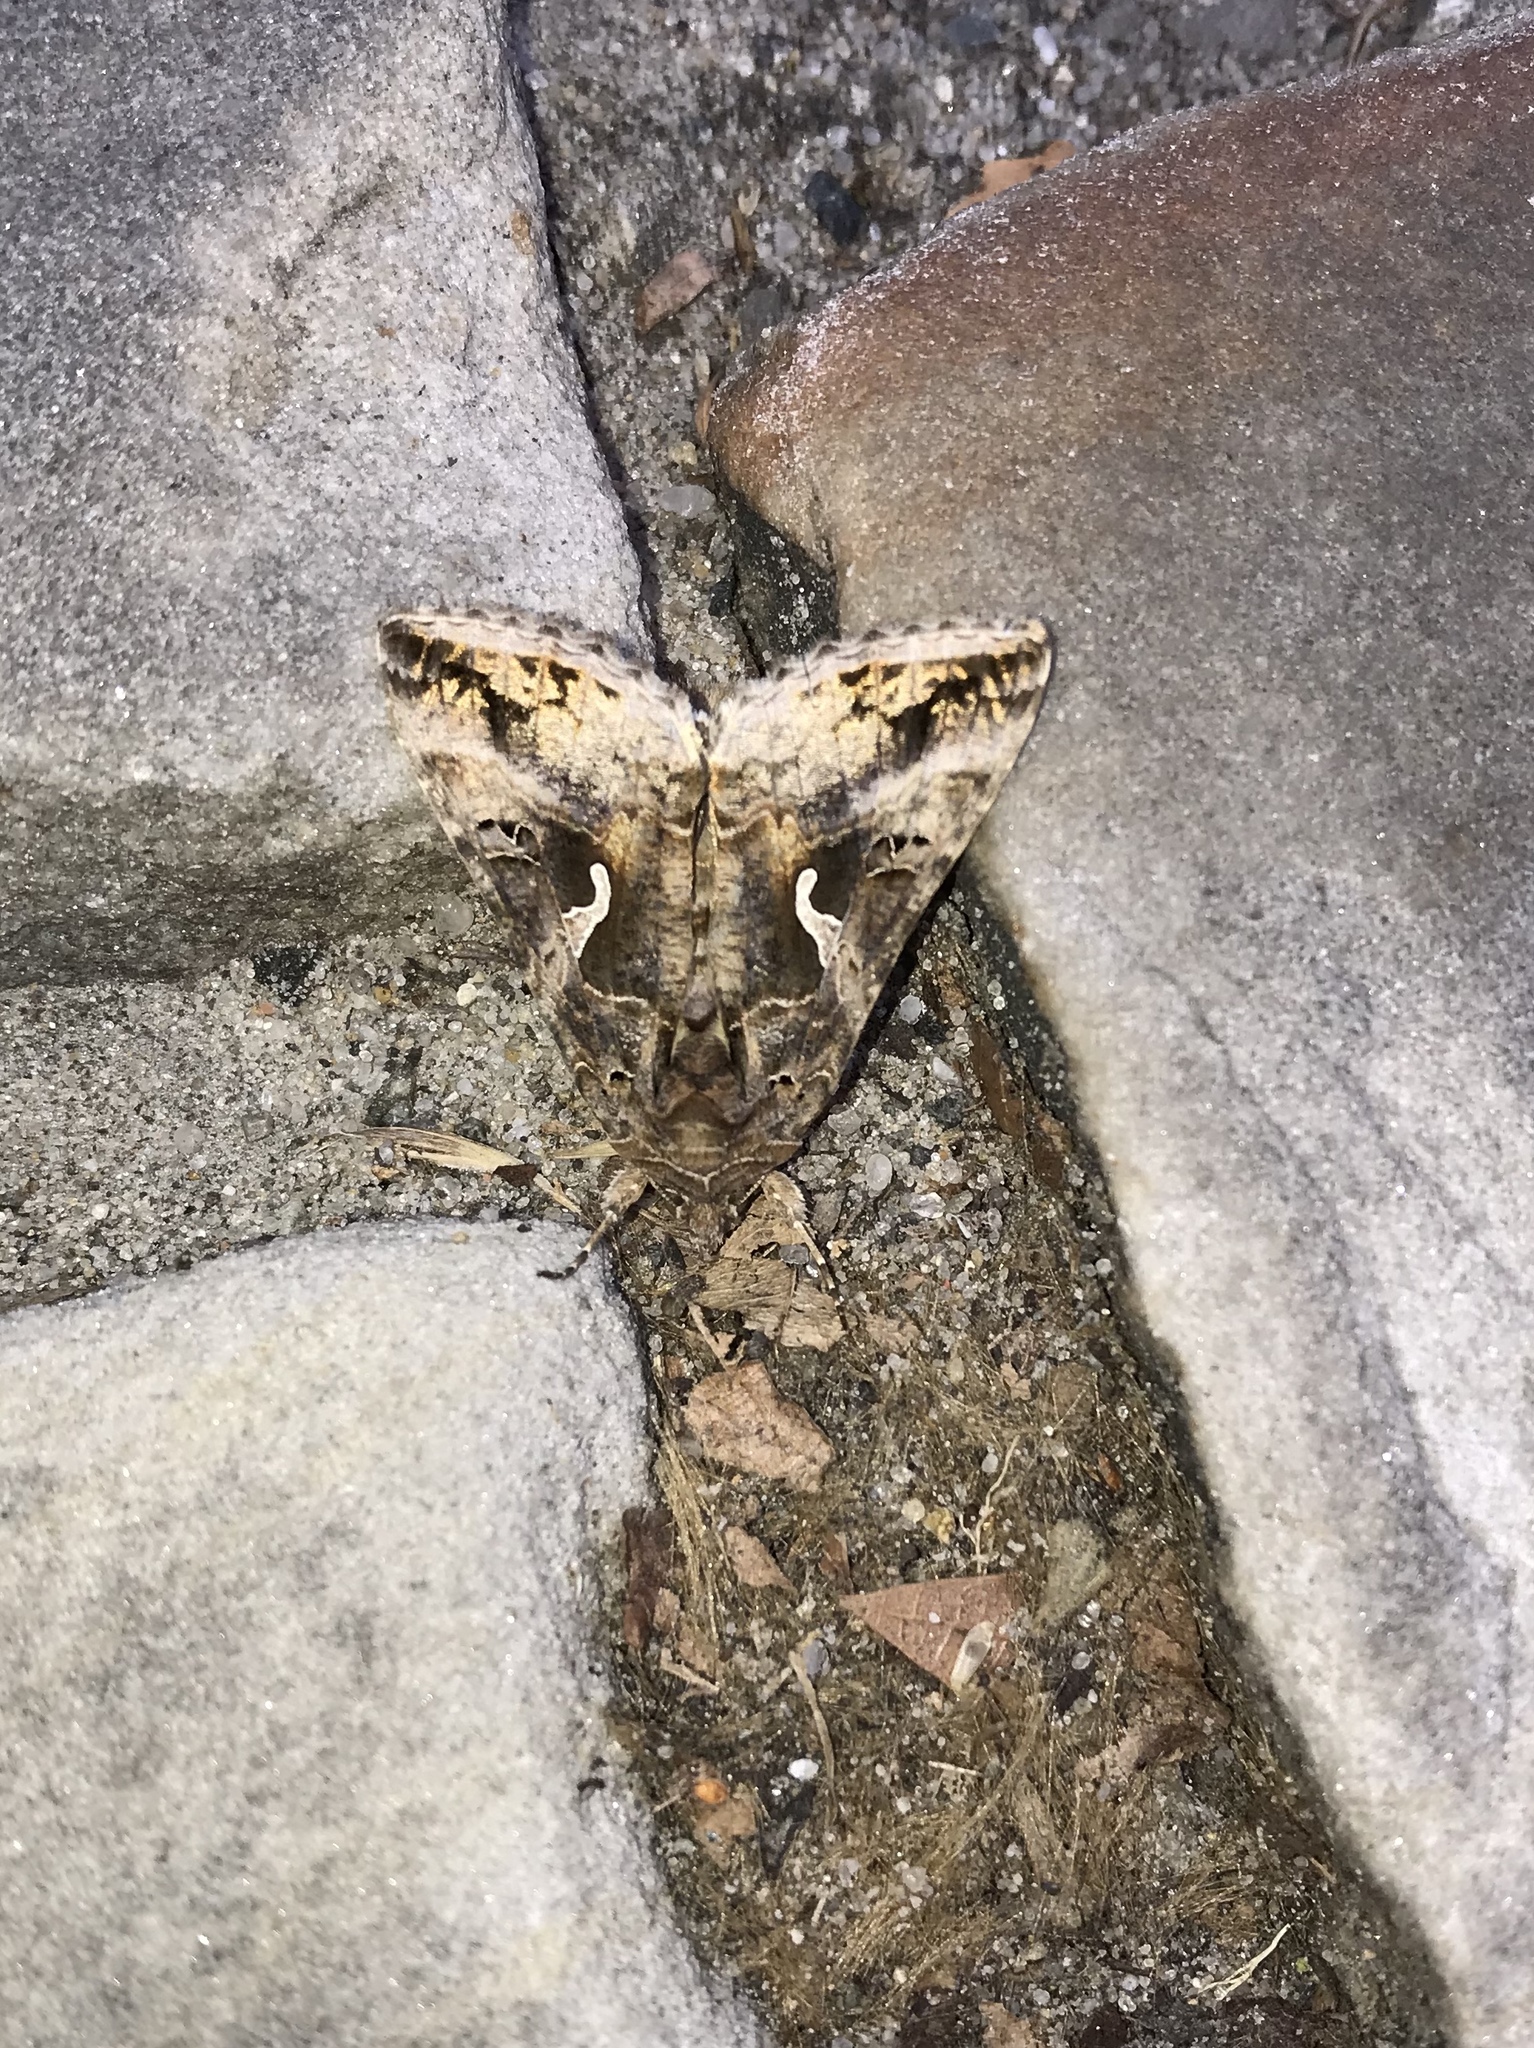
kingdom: Animalia
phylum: Arthropoda
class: Insecta
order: Lepidoptera
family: Noctuidae
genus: Autographa
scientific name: Autographa gamma
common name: Silver y
